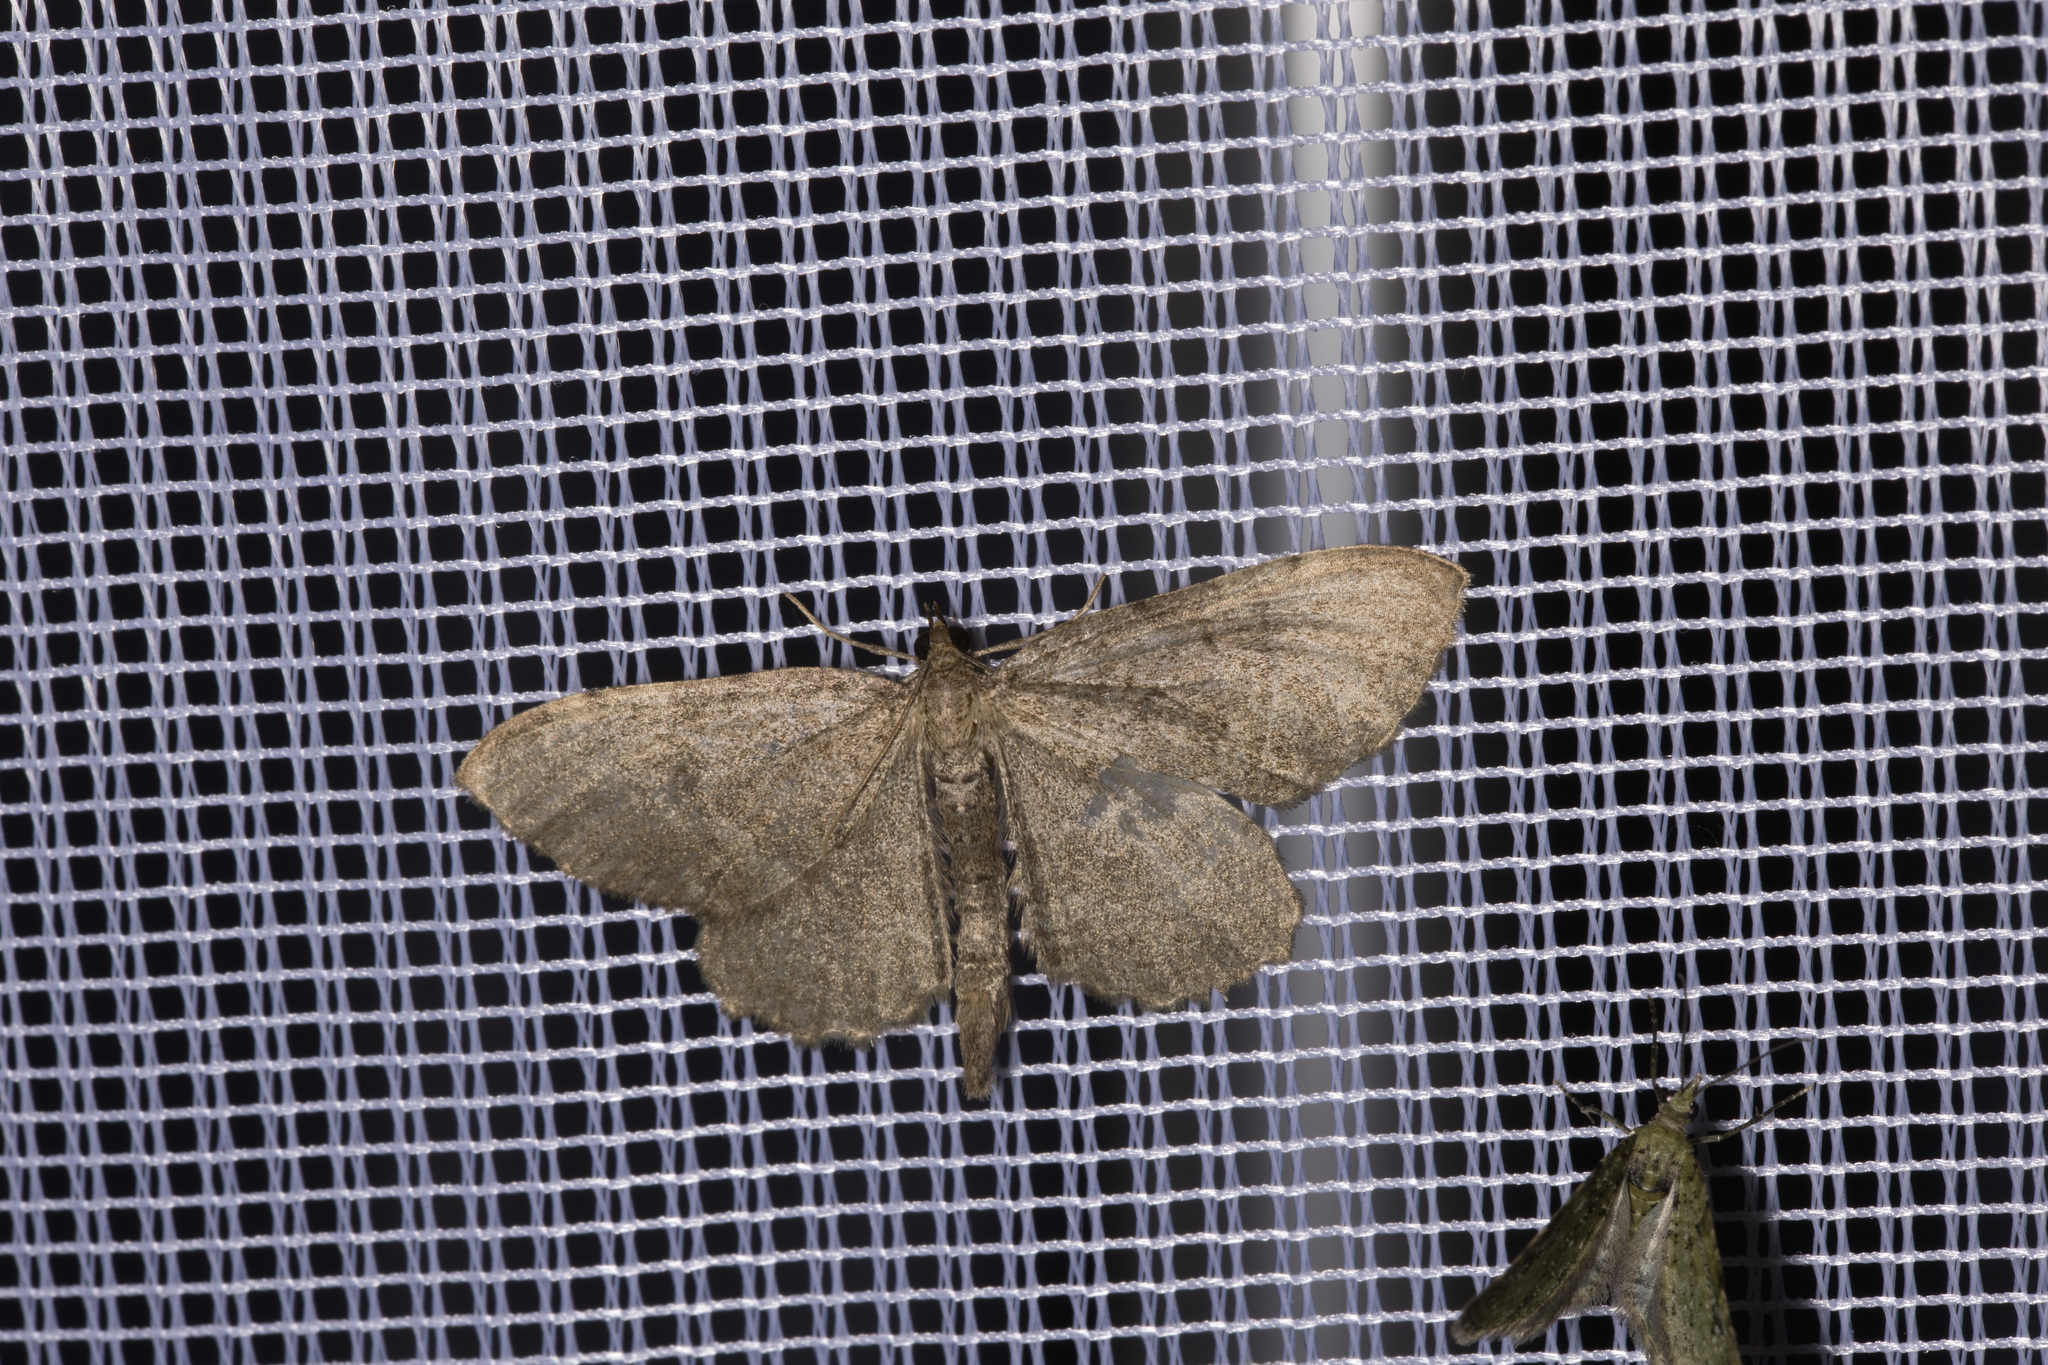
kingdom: Animalia
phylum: Arthropoda
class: Insecta
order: Lepidoptera
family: Geometridae
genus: Philereme
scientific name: Philereme vetulata
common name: Brown scallop
